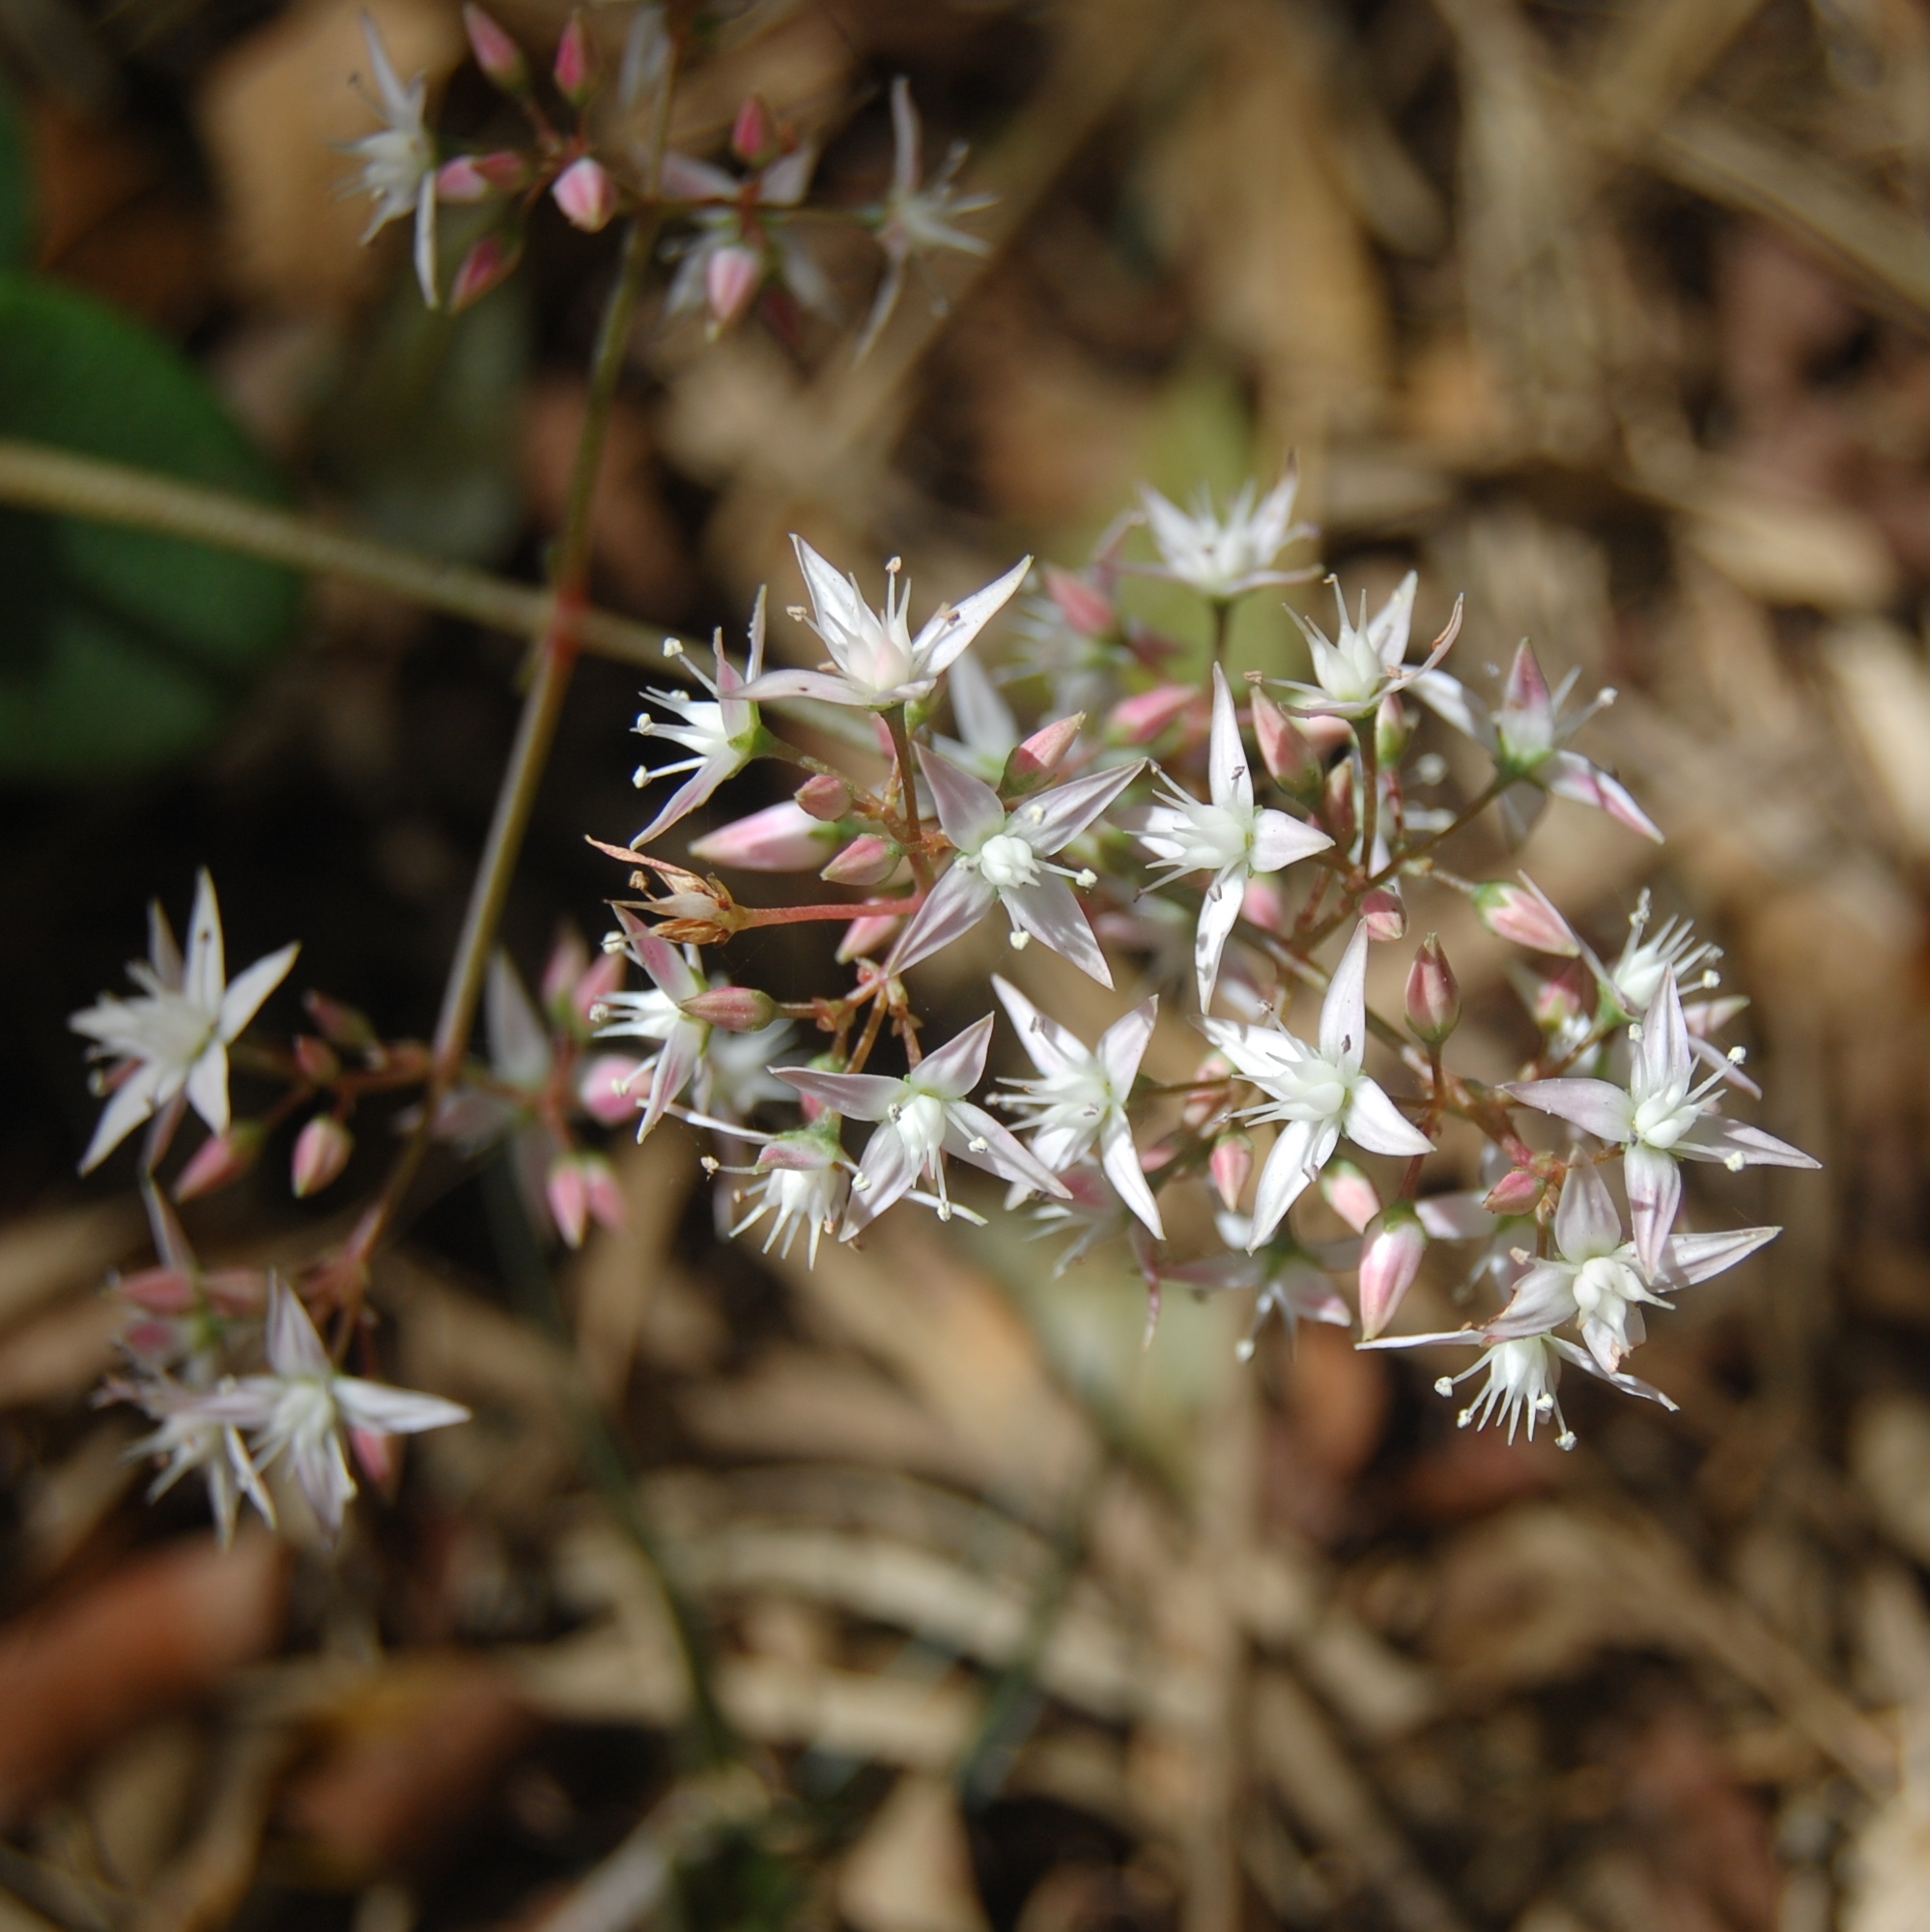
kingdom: Plantae
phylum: Tracheophyta
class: Magnoliopsida
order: Saxifragales
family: Crassulaceae
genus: Crassula
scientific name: Crassula multicava
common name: Cape province pygmyweed
